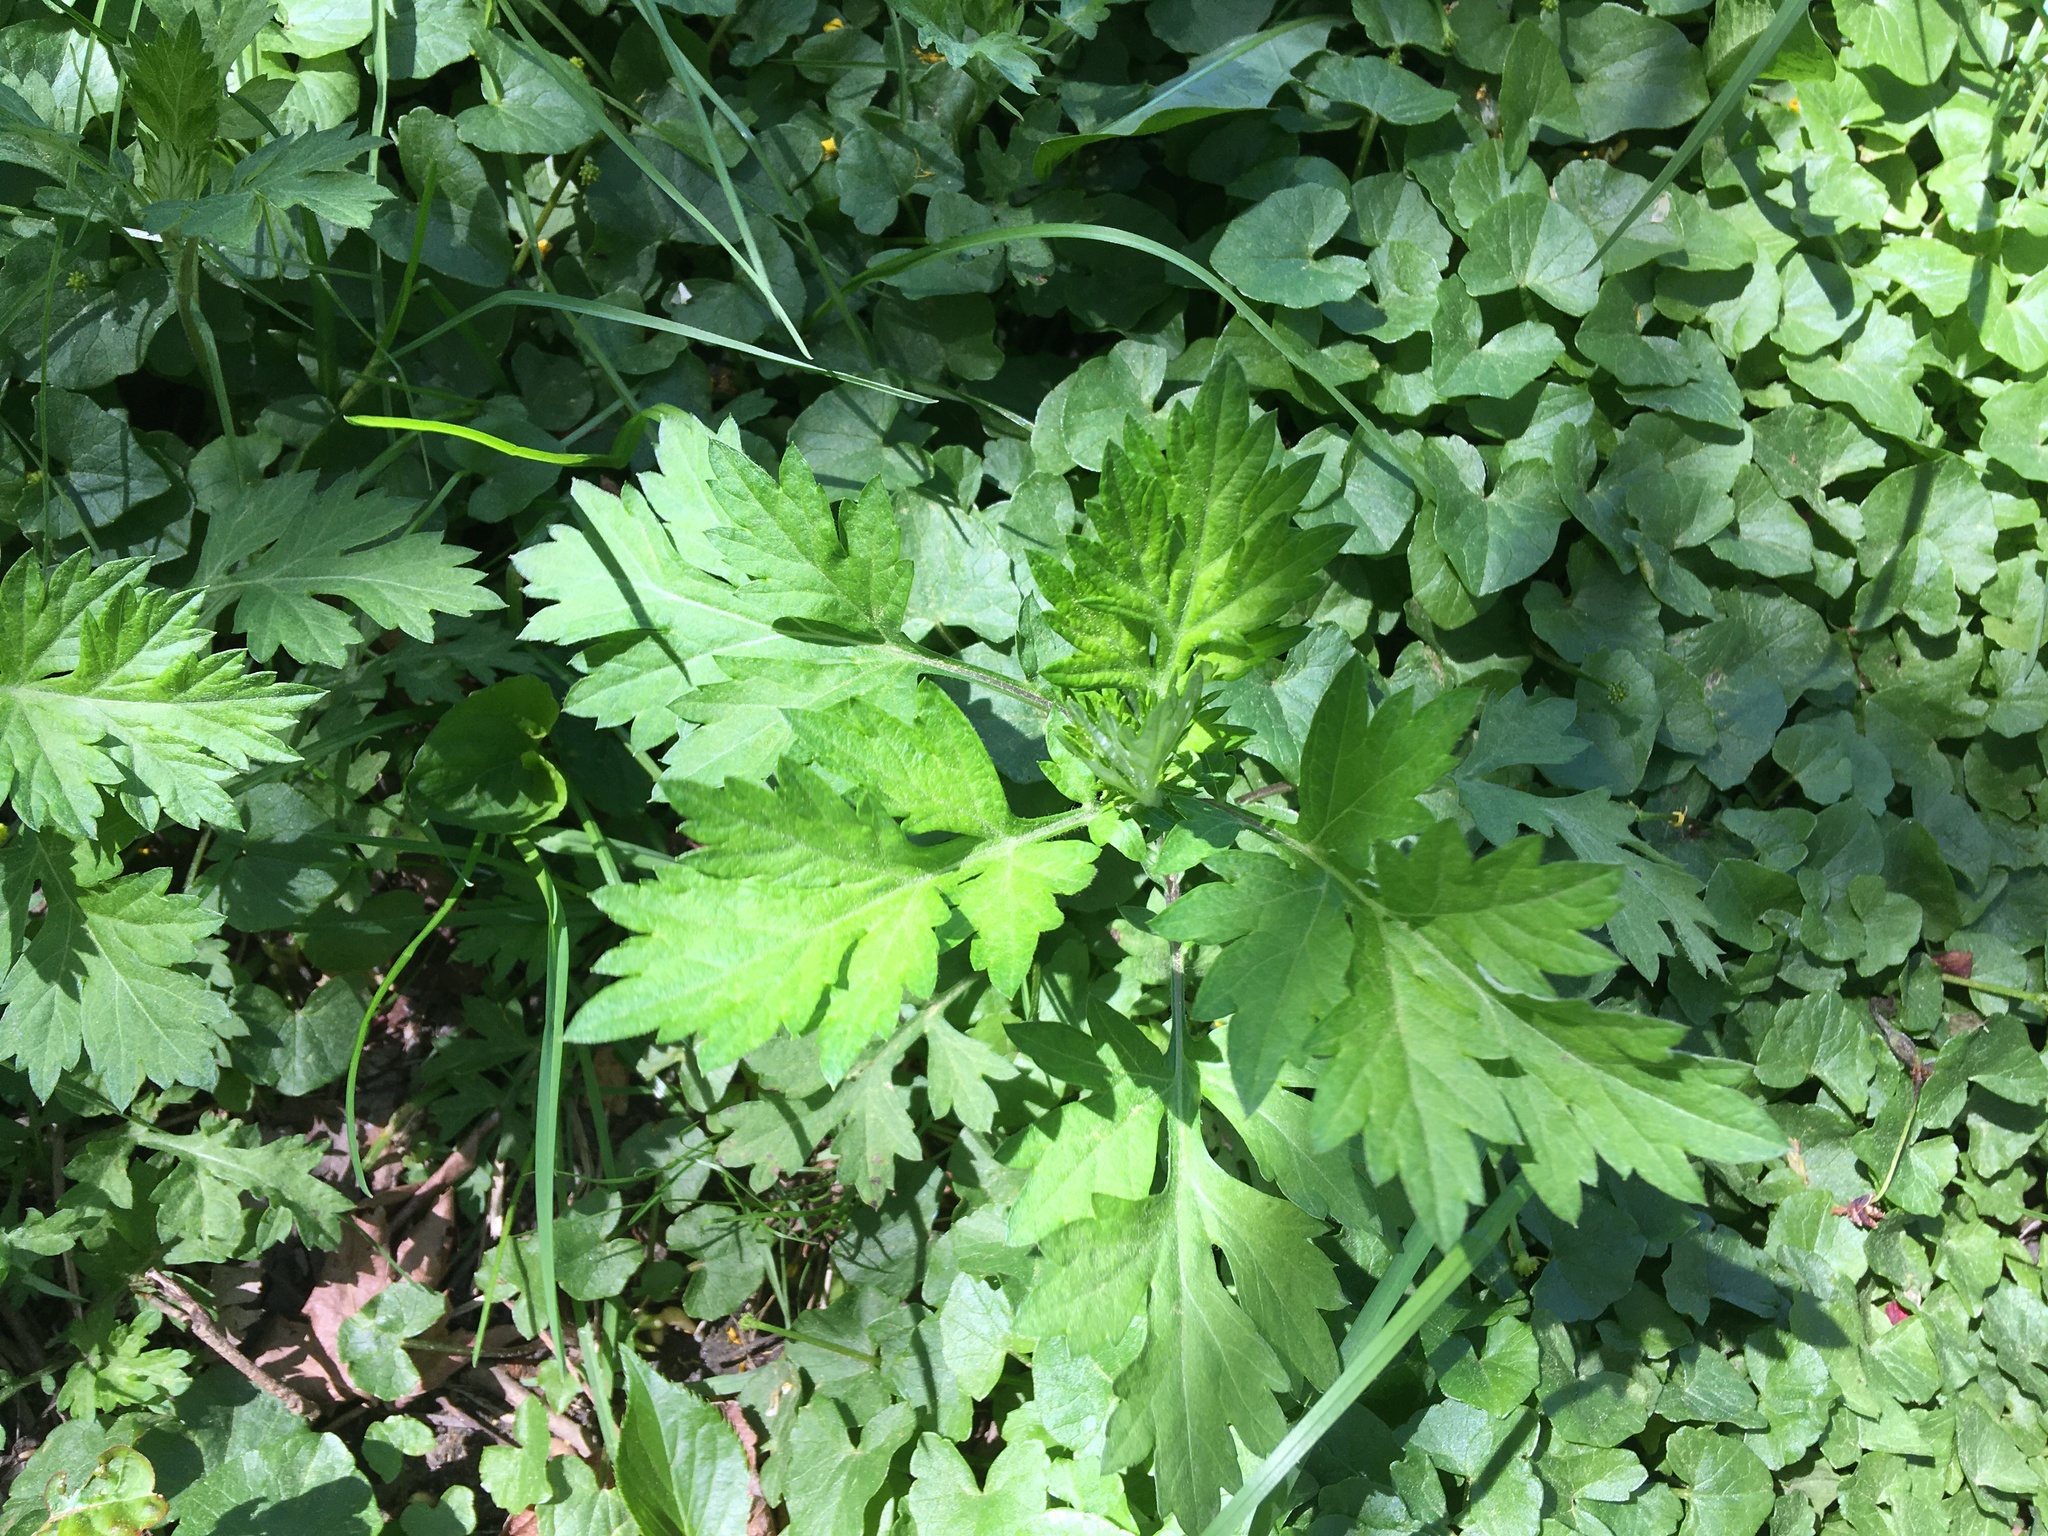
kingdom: Plantae
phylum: Tracheophyta
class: Magnoliopsida
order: Asterales
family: Asteraceae
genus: Artemisia
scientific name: Artemisia vulgaris
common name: Mugwort
